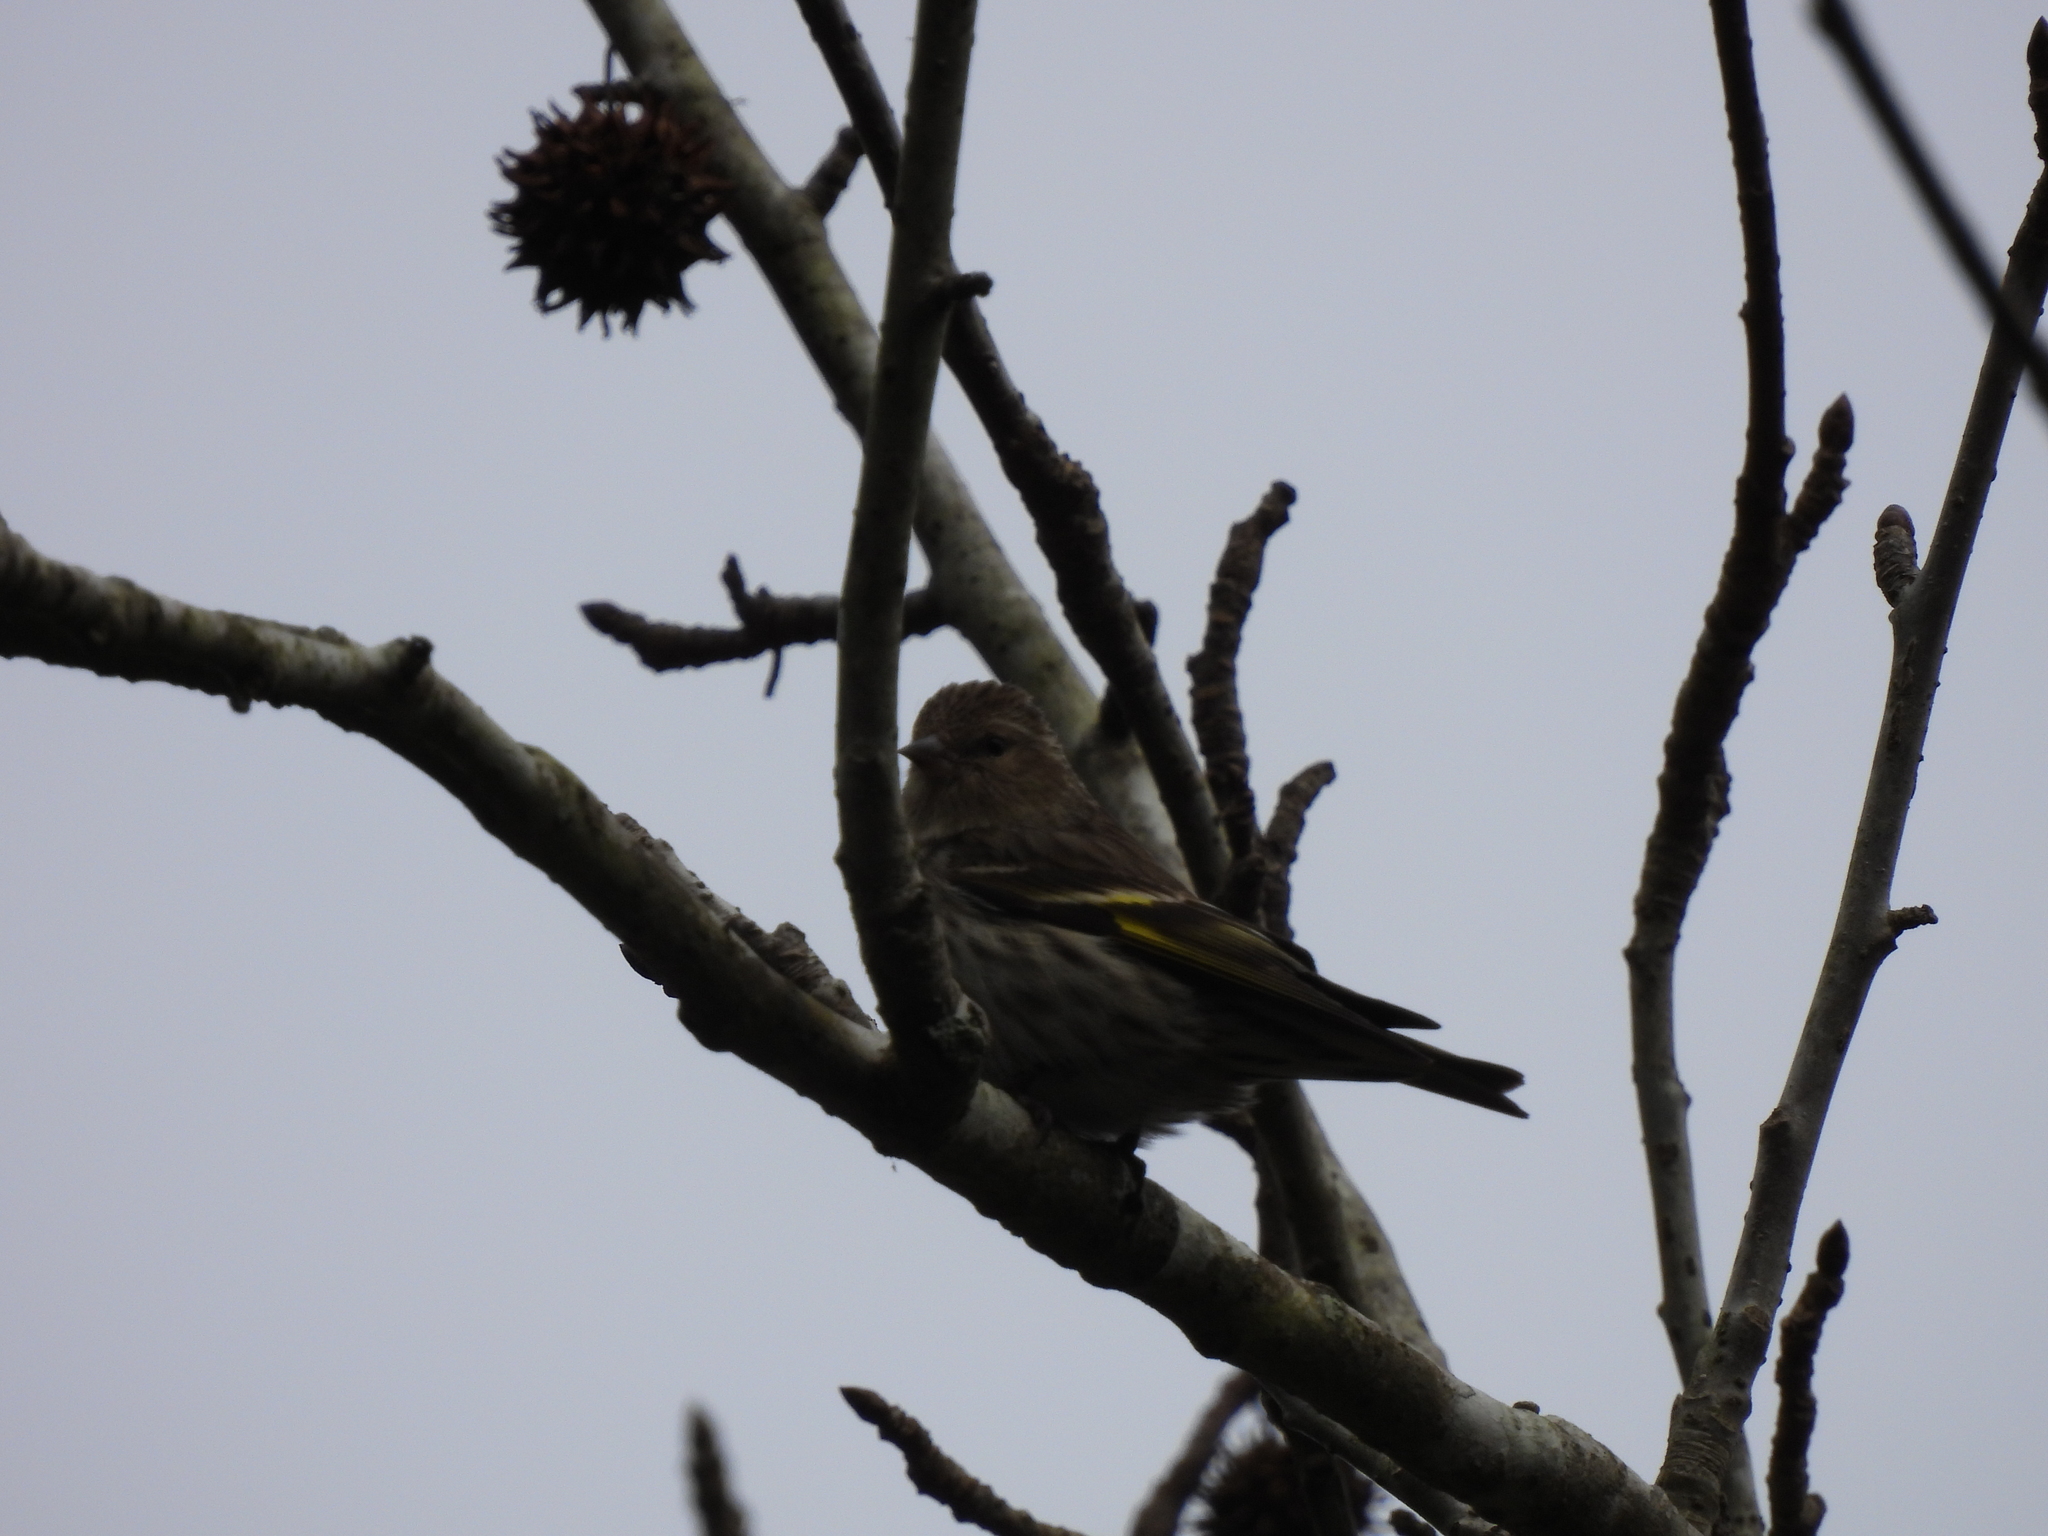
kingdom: Animalia
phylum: Chordata
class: Aves
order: Passeriformes
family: Fringillidae
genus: Spinus
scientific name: Spinus pinus
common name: Pine siskin
